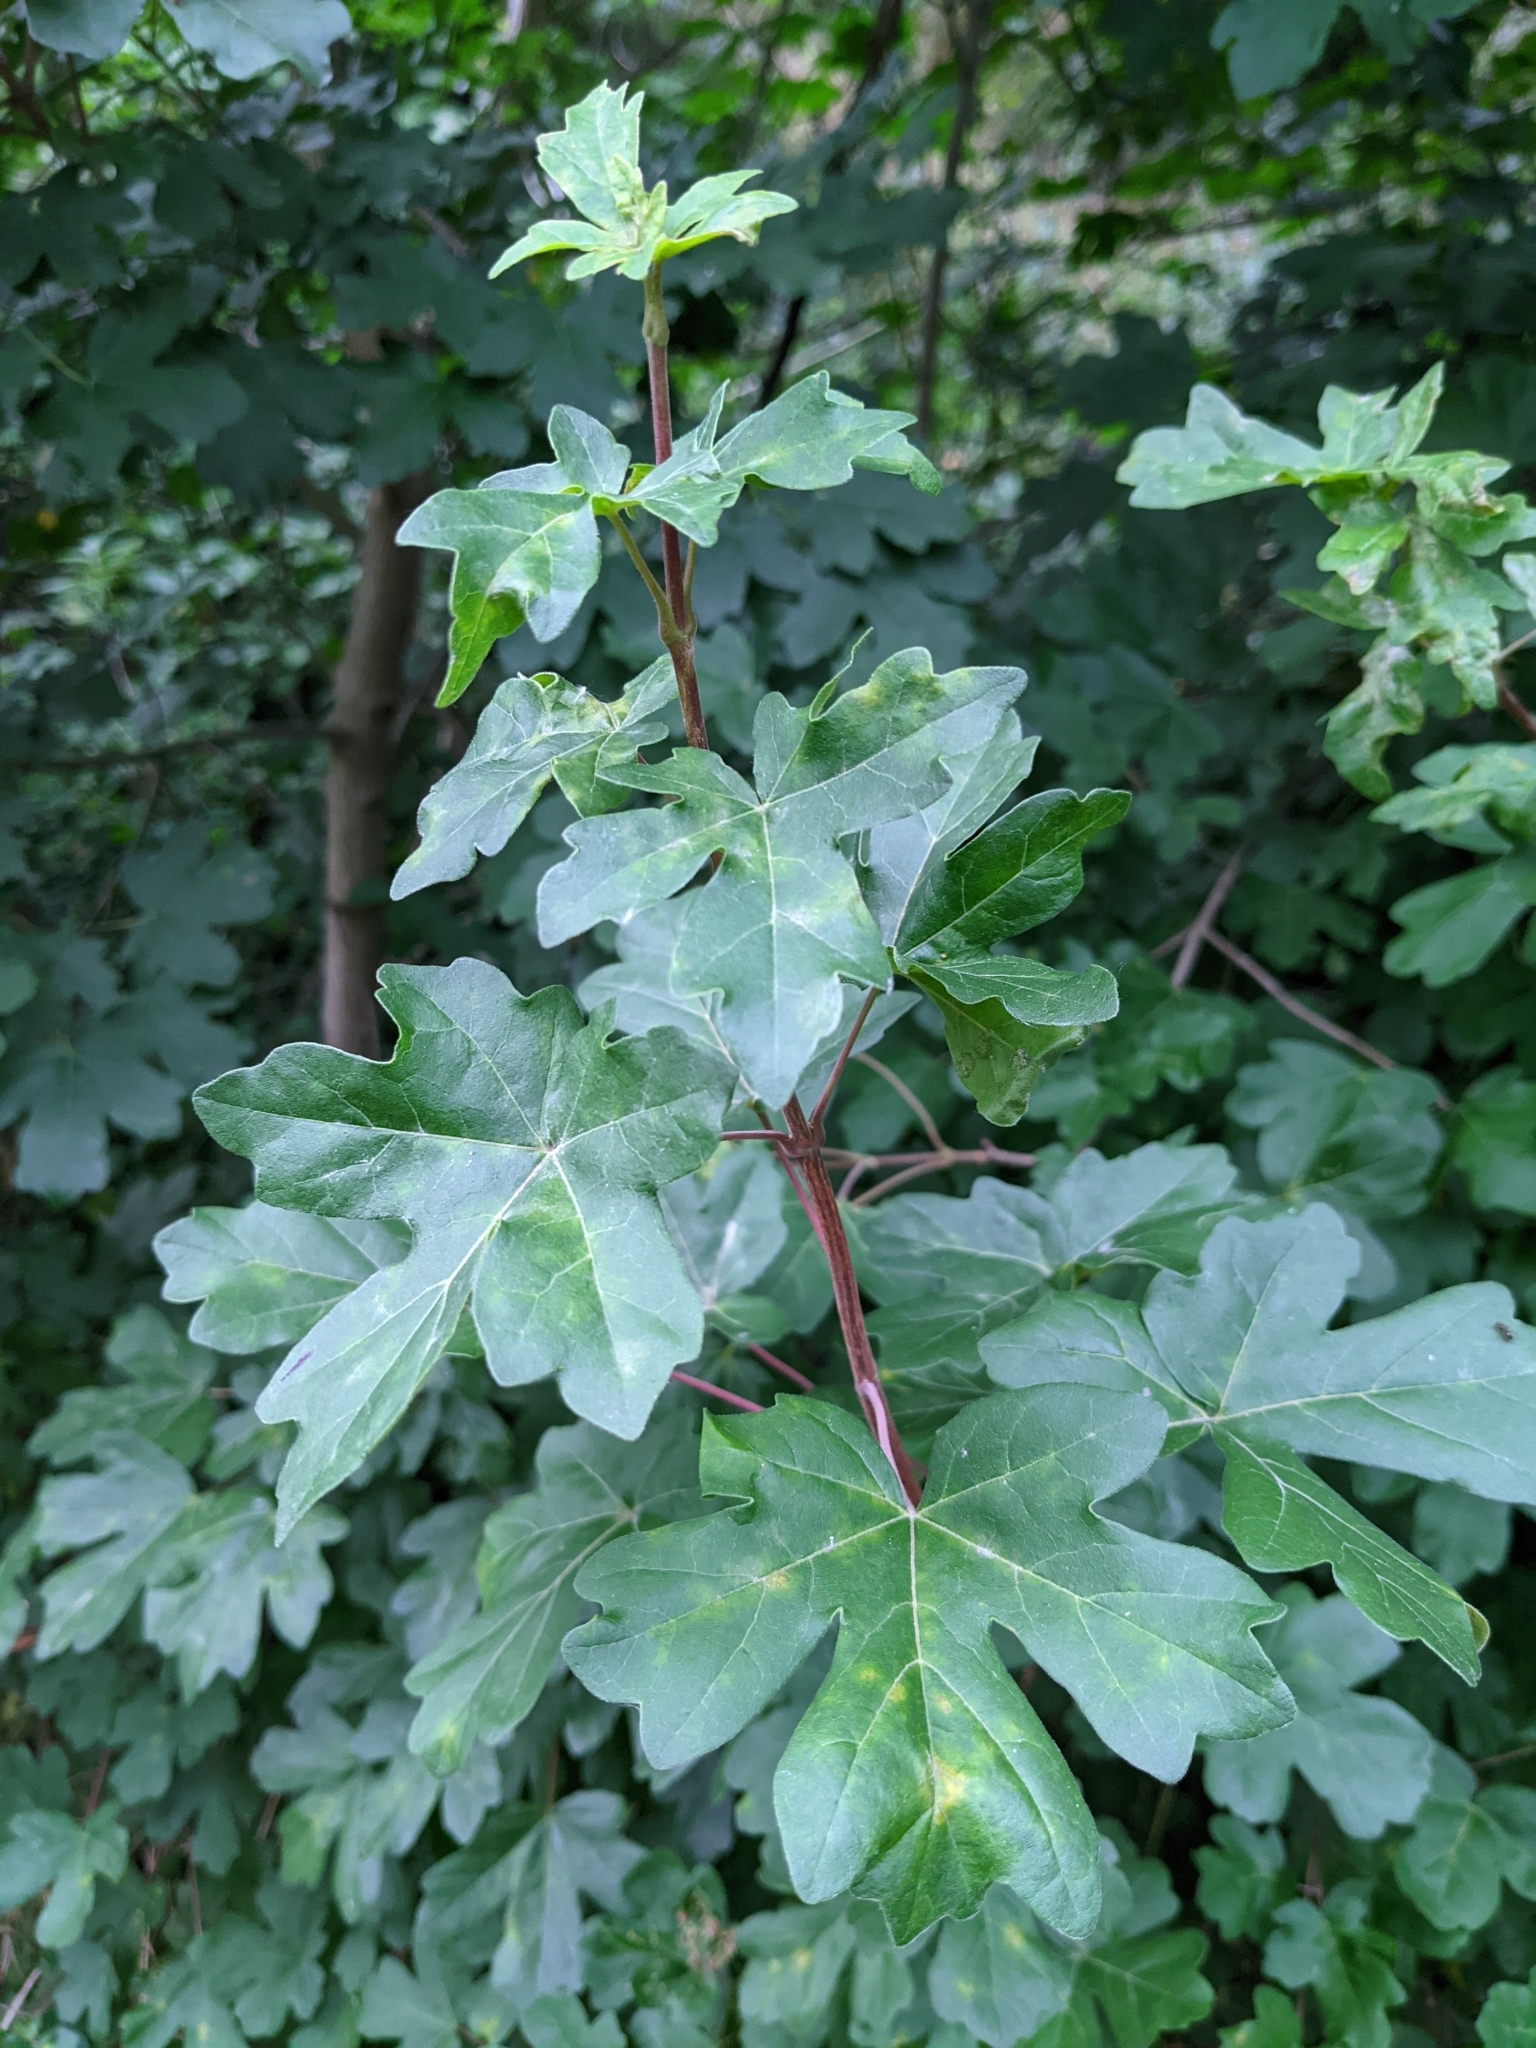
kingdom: Plantae
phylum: Tracheophyta
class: Magnoliopsida
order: Sapindales
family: Sapindaceae
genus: Acer
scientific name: Acer campestre
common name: Field maple
